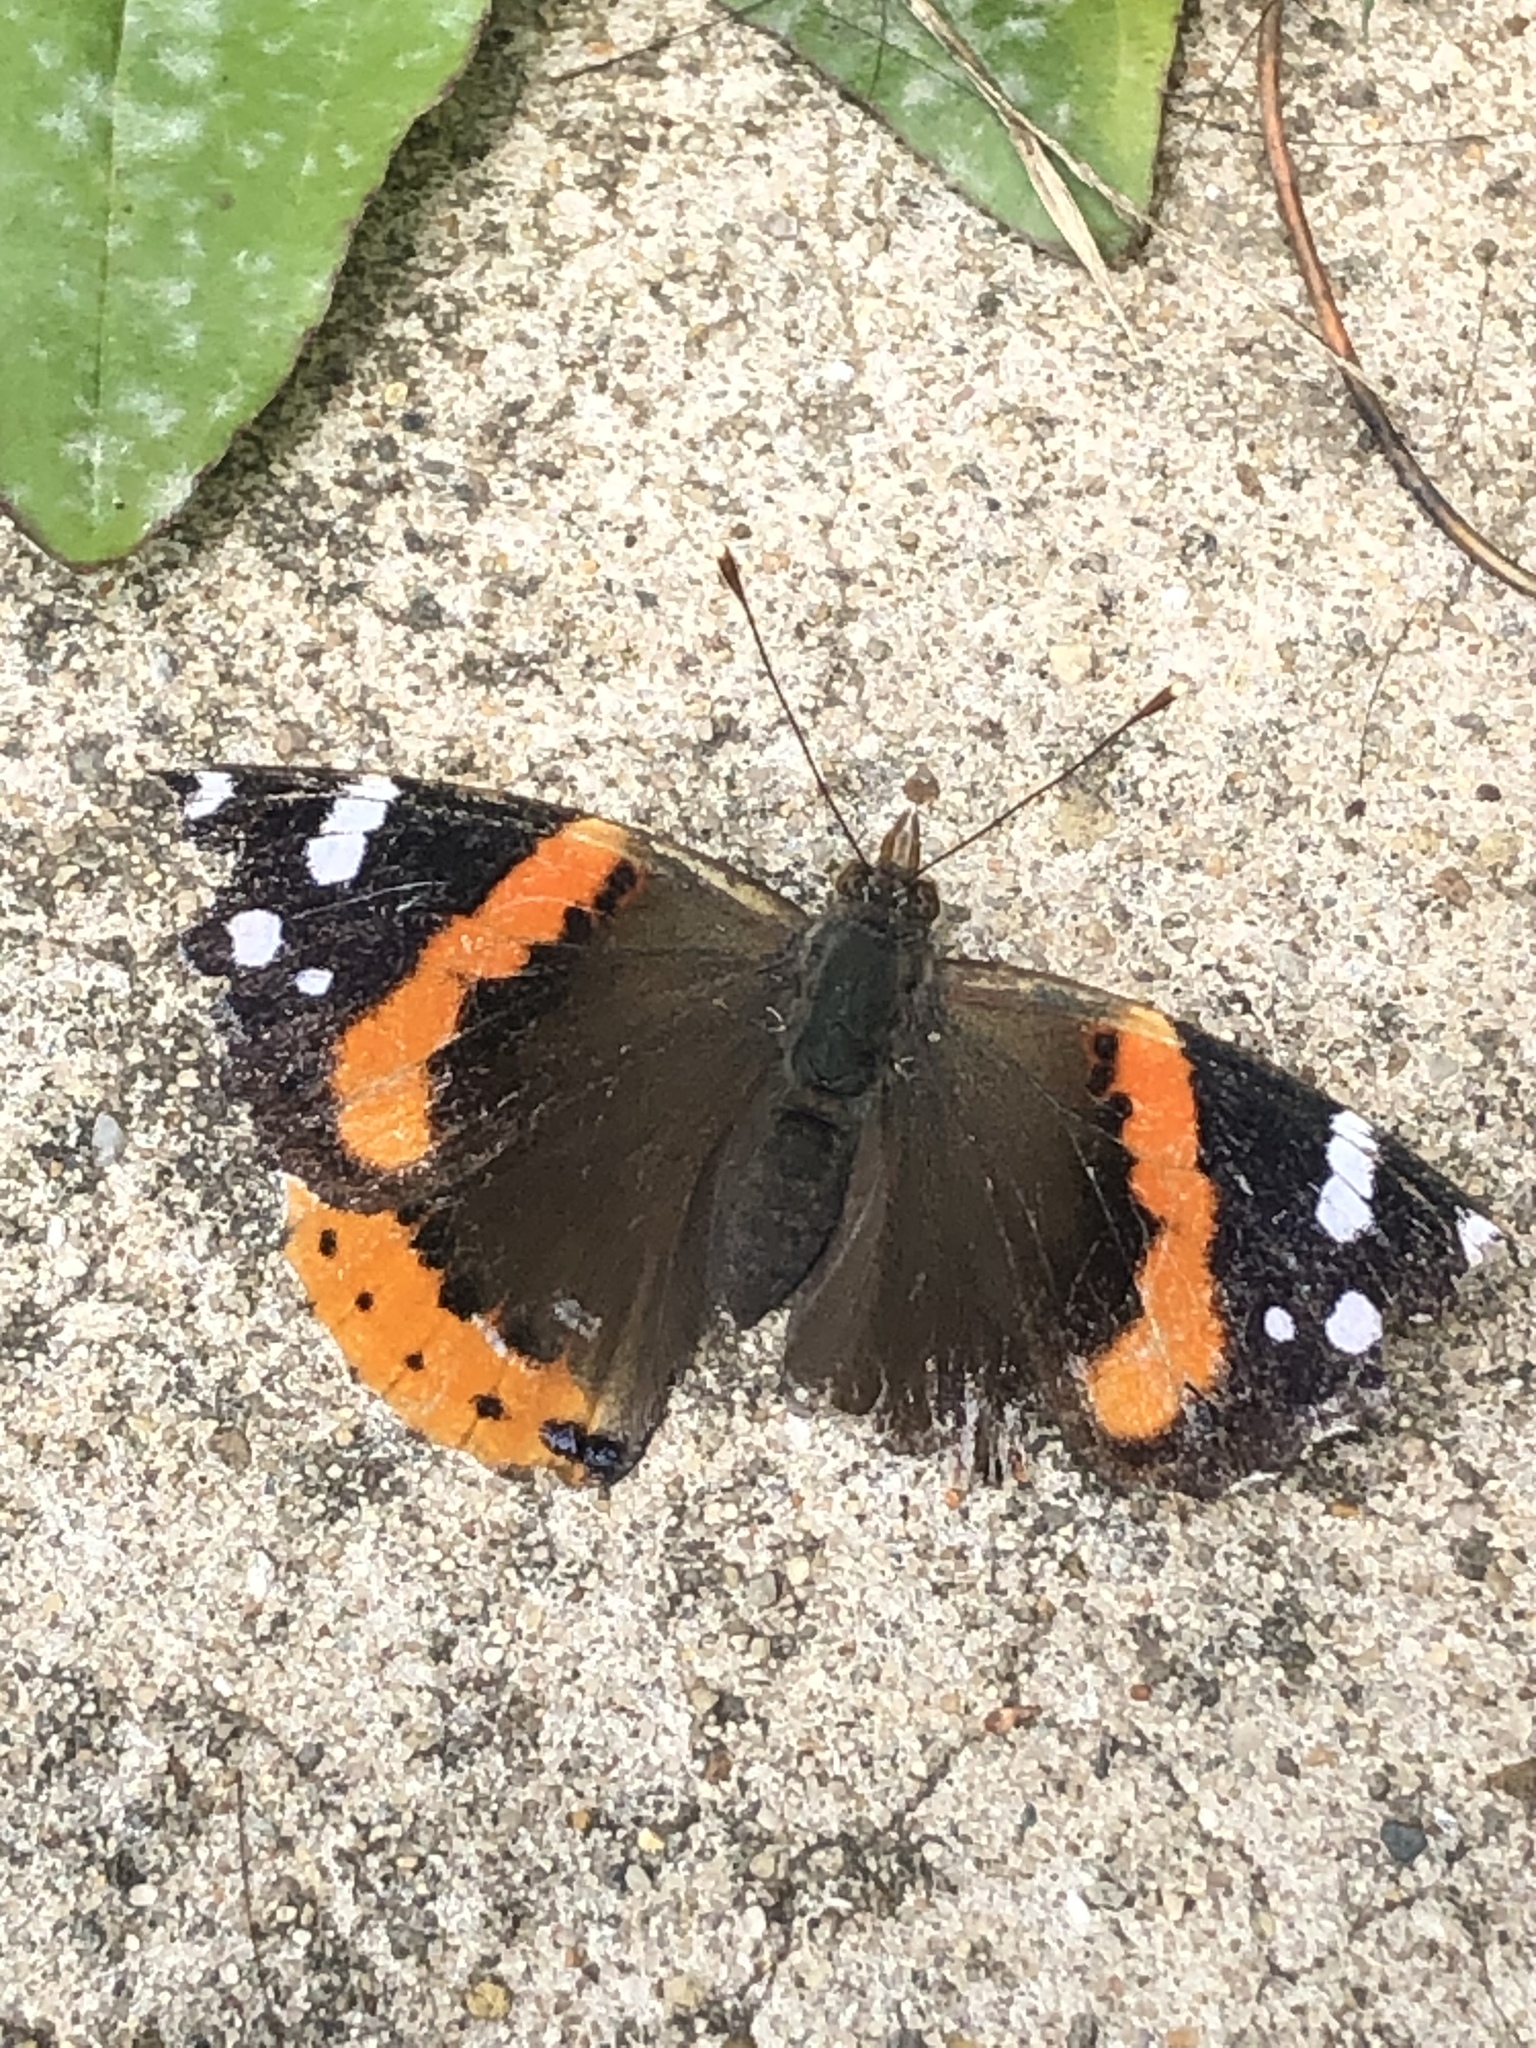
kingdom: Animalia
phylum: Arthropoda
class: Insecta
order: Lepidoptera
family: Nymphalidae
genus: Vanessa
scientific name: Vanessa atalanta
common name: Red admiral
